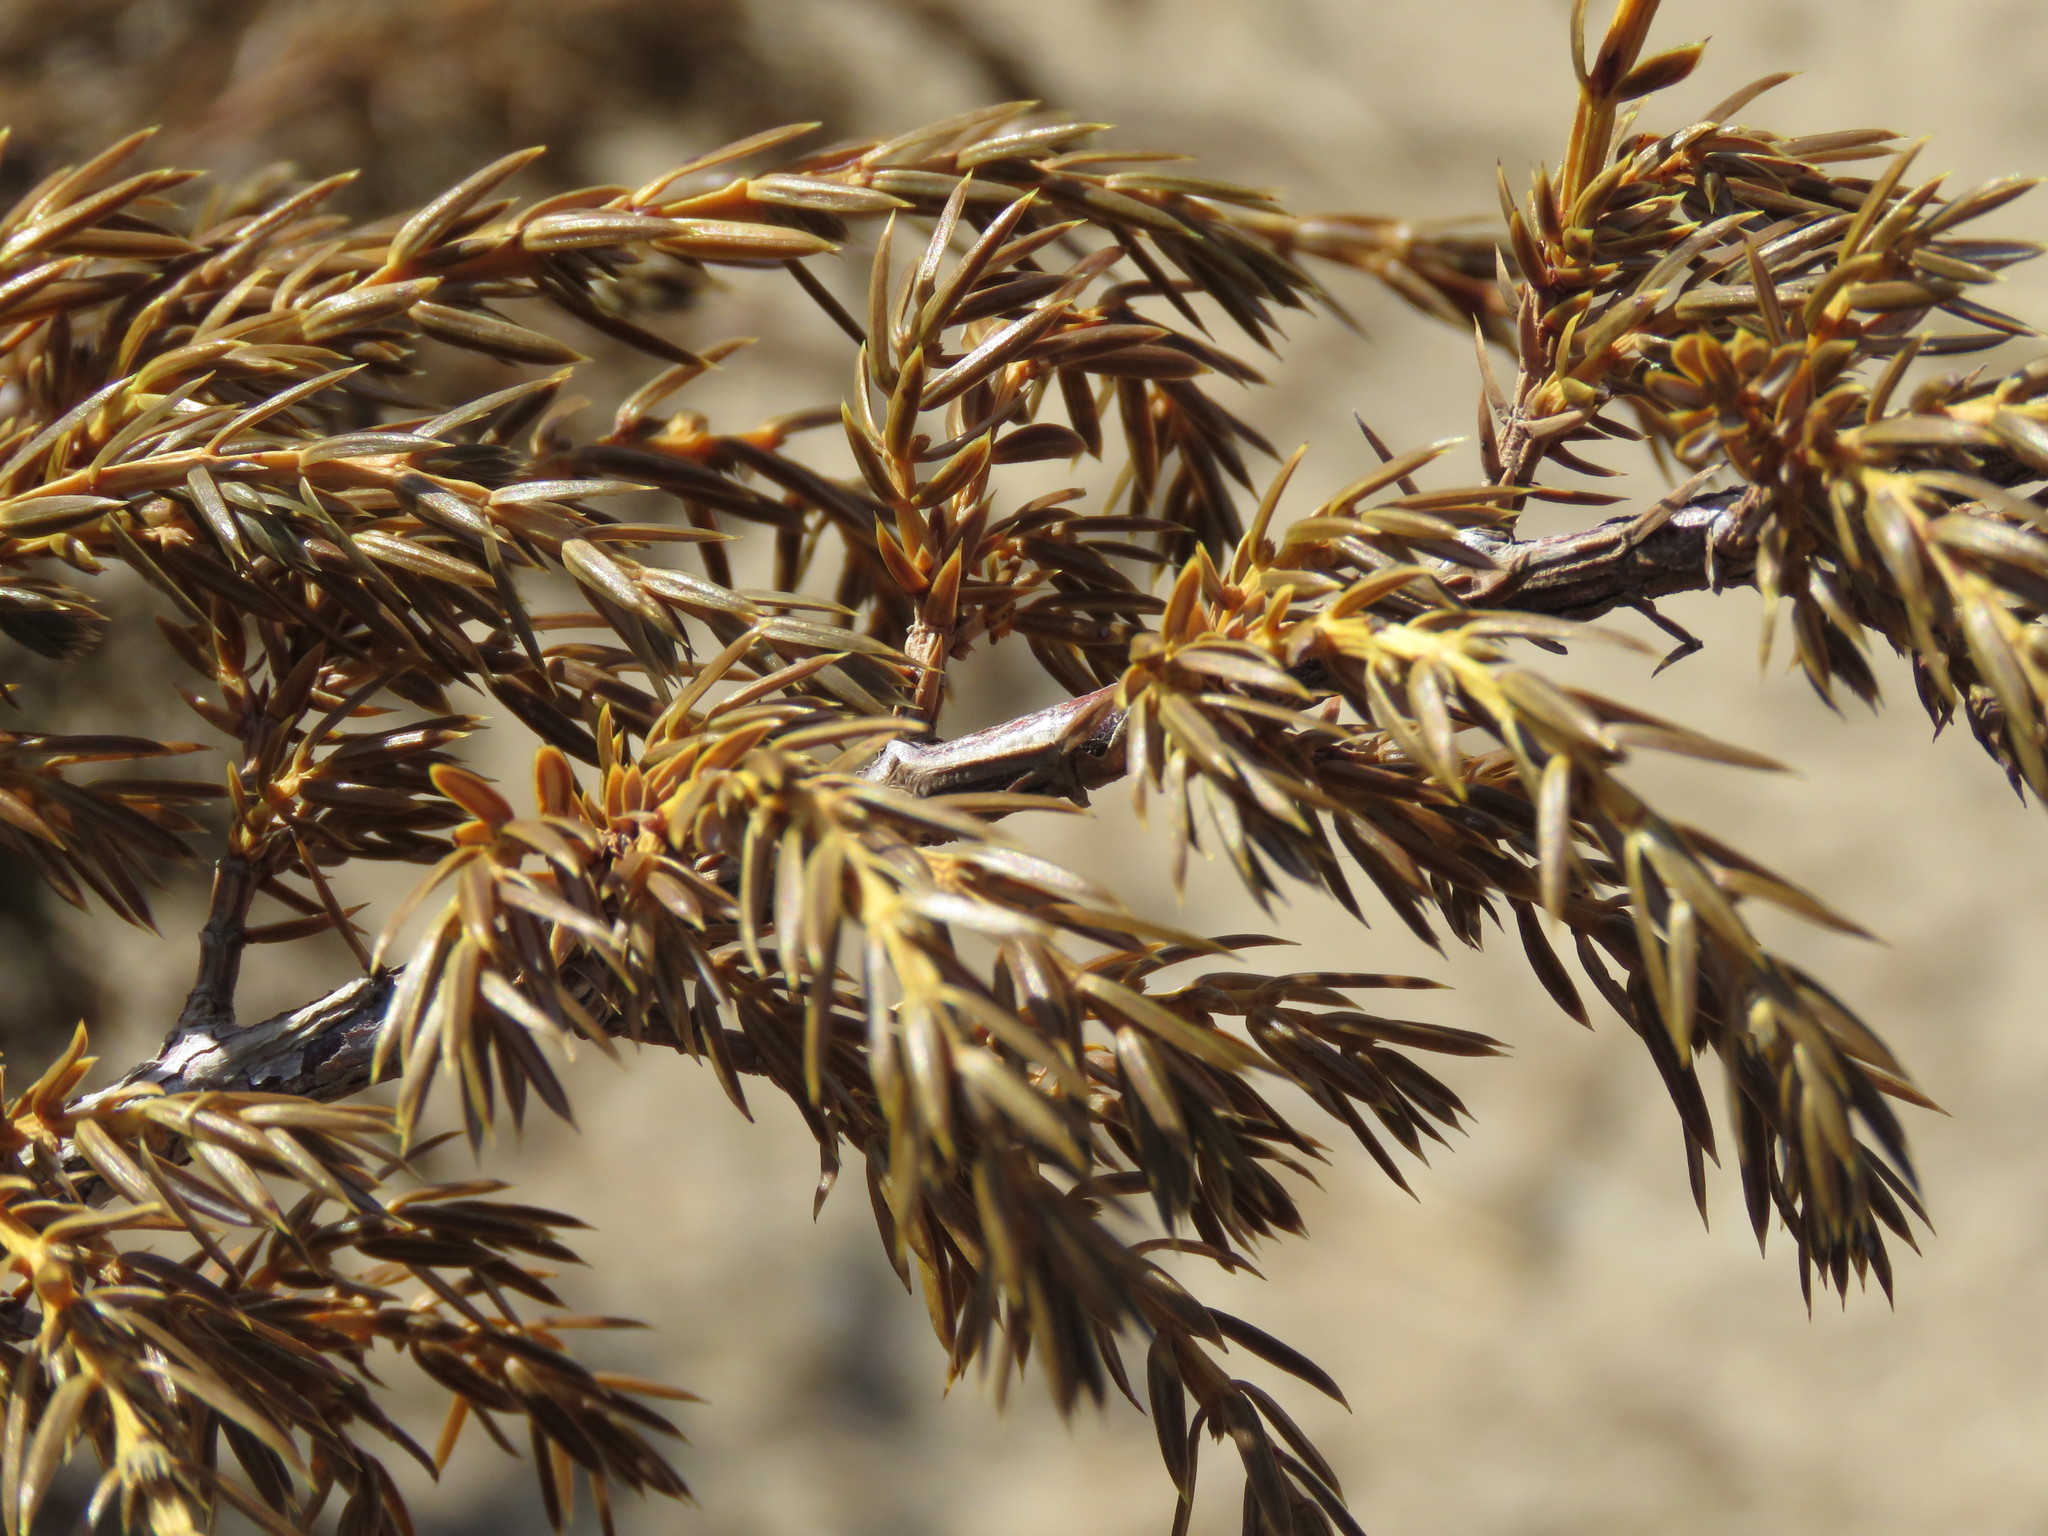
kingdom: Plantae
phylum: Tracheophyta
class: Pinopsida
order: Pinales
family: Cupressaceae
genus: Juniperus
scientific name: Juniperus communis
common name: Common juniper
